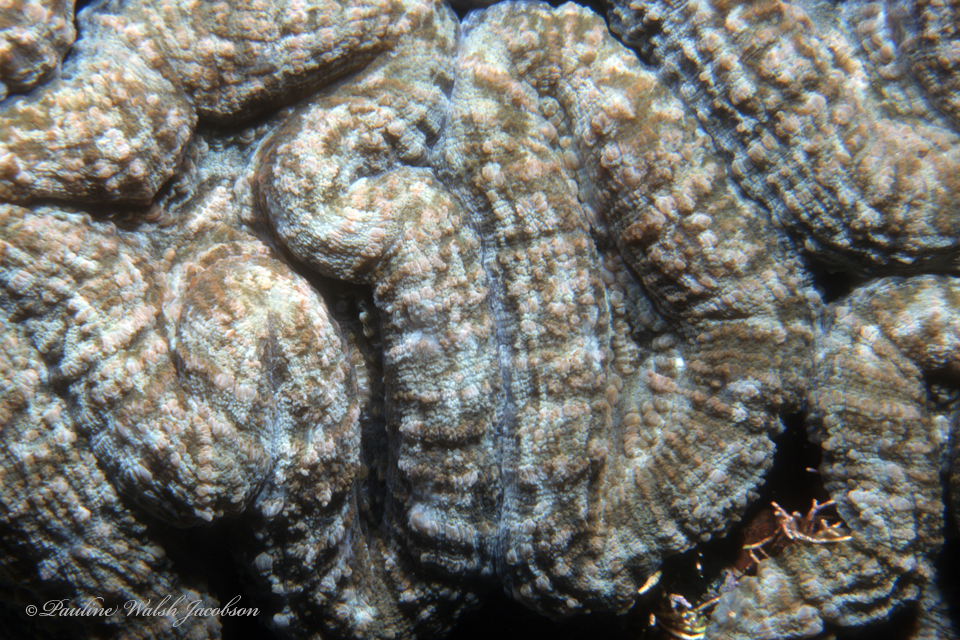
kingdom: Animalia
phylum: Cnidaria
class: Anthozoa
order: Scleractinia
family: Faviidae
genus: Mussa
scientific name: Mussa angulosa
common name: Spiny flower coral
